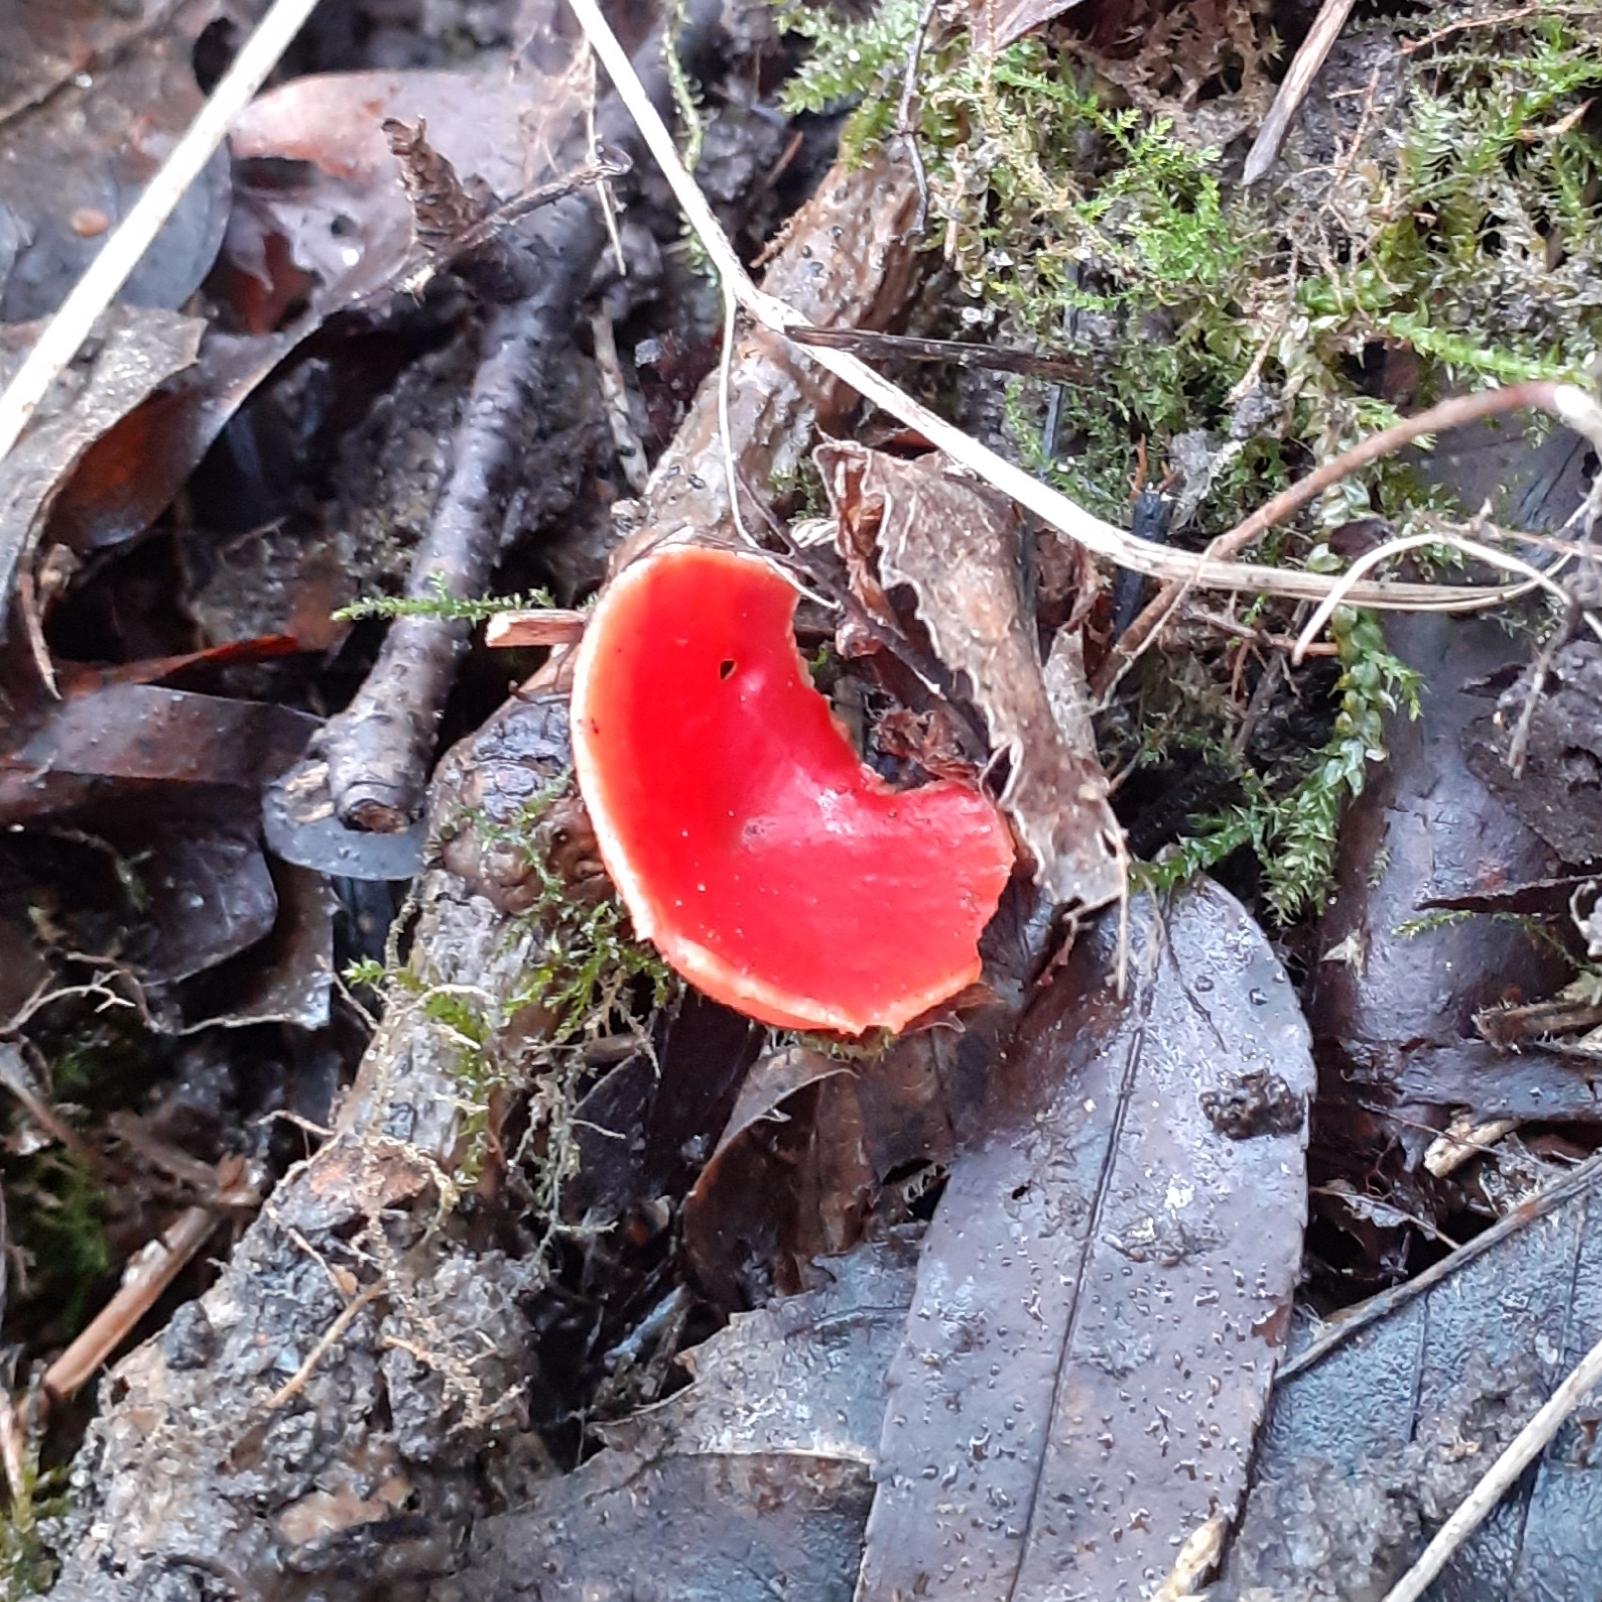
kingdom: Fungi
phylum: Ascomycota
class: Pezizomycetes
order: Pezizales
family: Sarcoscyphaceae
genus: Sarcoscypha
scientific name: Sarcoscypha
